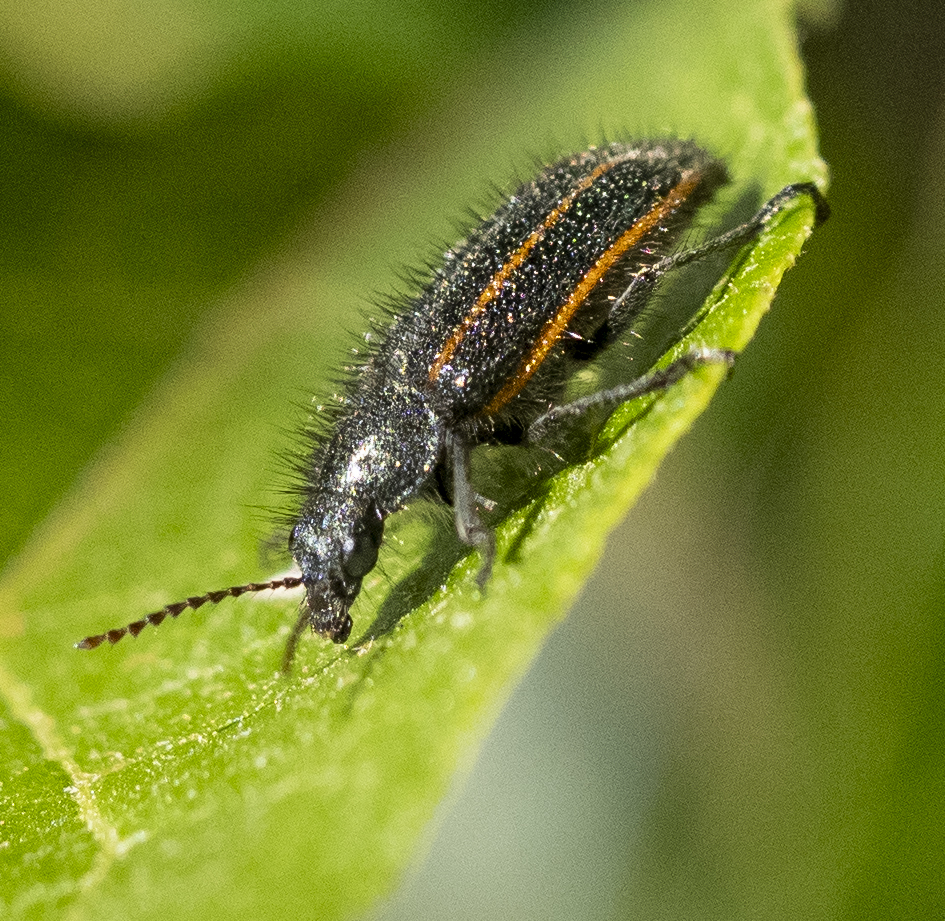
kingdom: Animalia
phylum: Arthropoda
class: Insecta
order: Coleoptera
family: Melyridae
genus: Astylus
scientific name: Astylus
